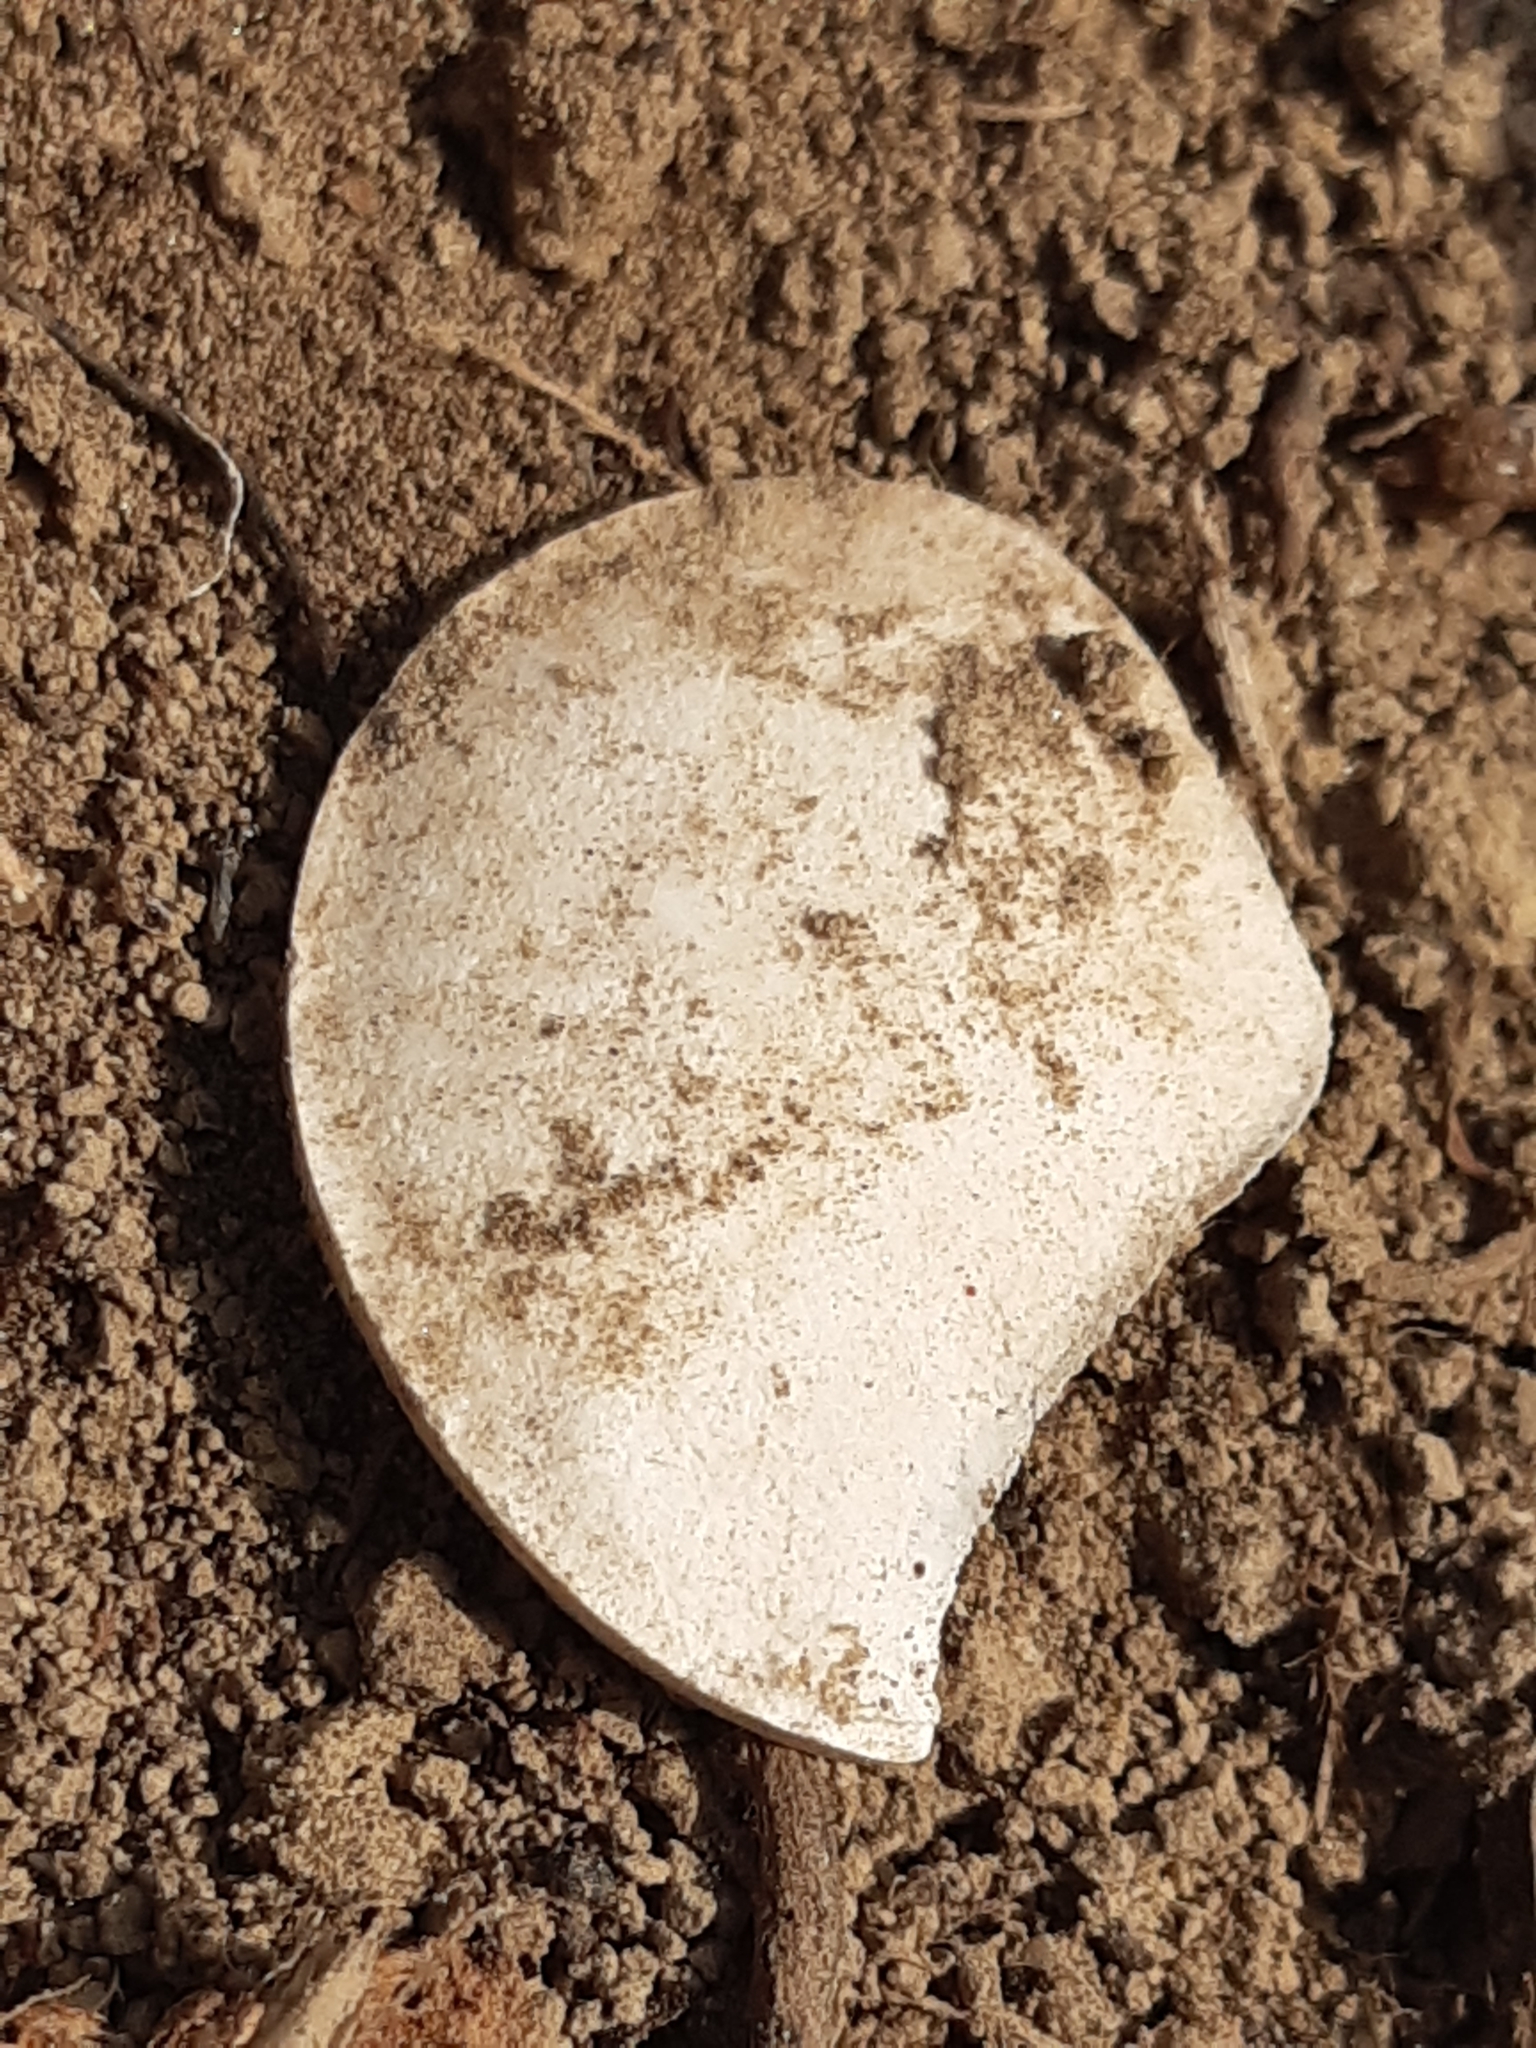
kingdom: Animalia
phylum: Mollusca
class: Gastropoda
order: Stylommatophora
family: Helicidae
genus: Helix
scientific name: Helix pomatia
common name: Roman snail
